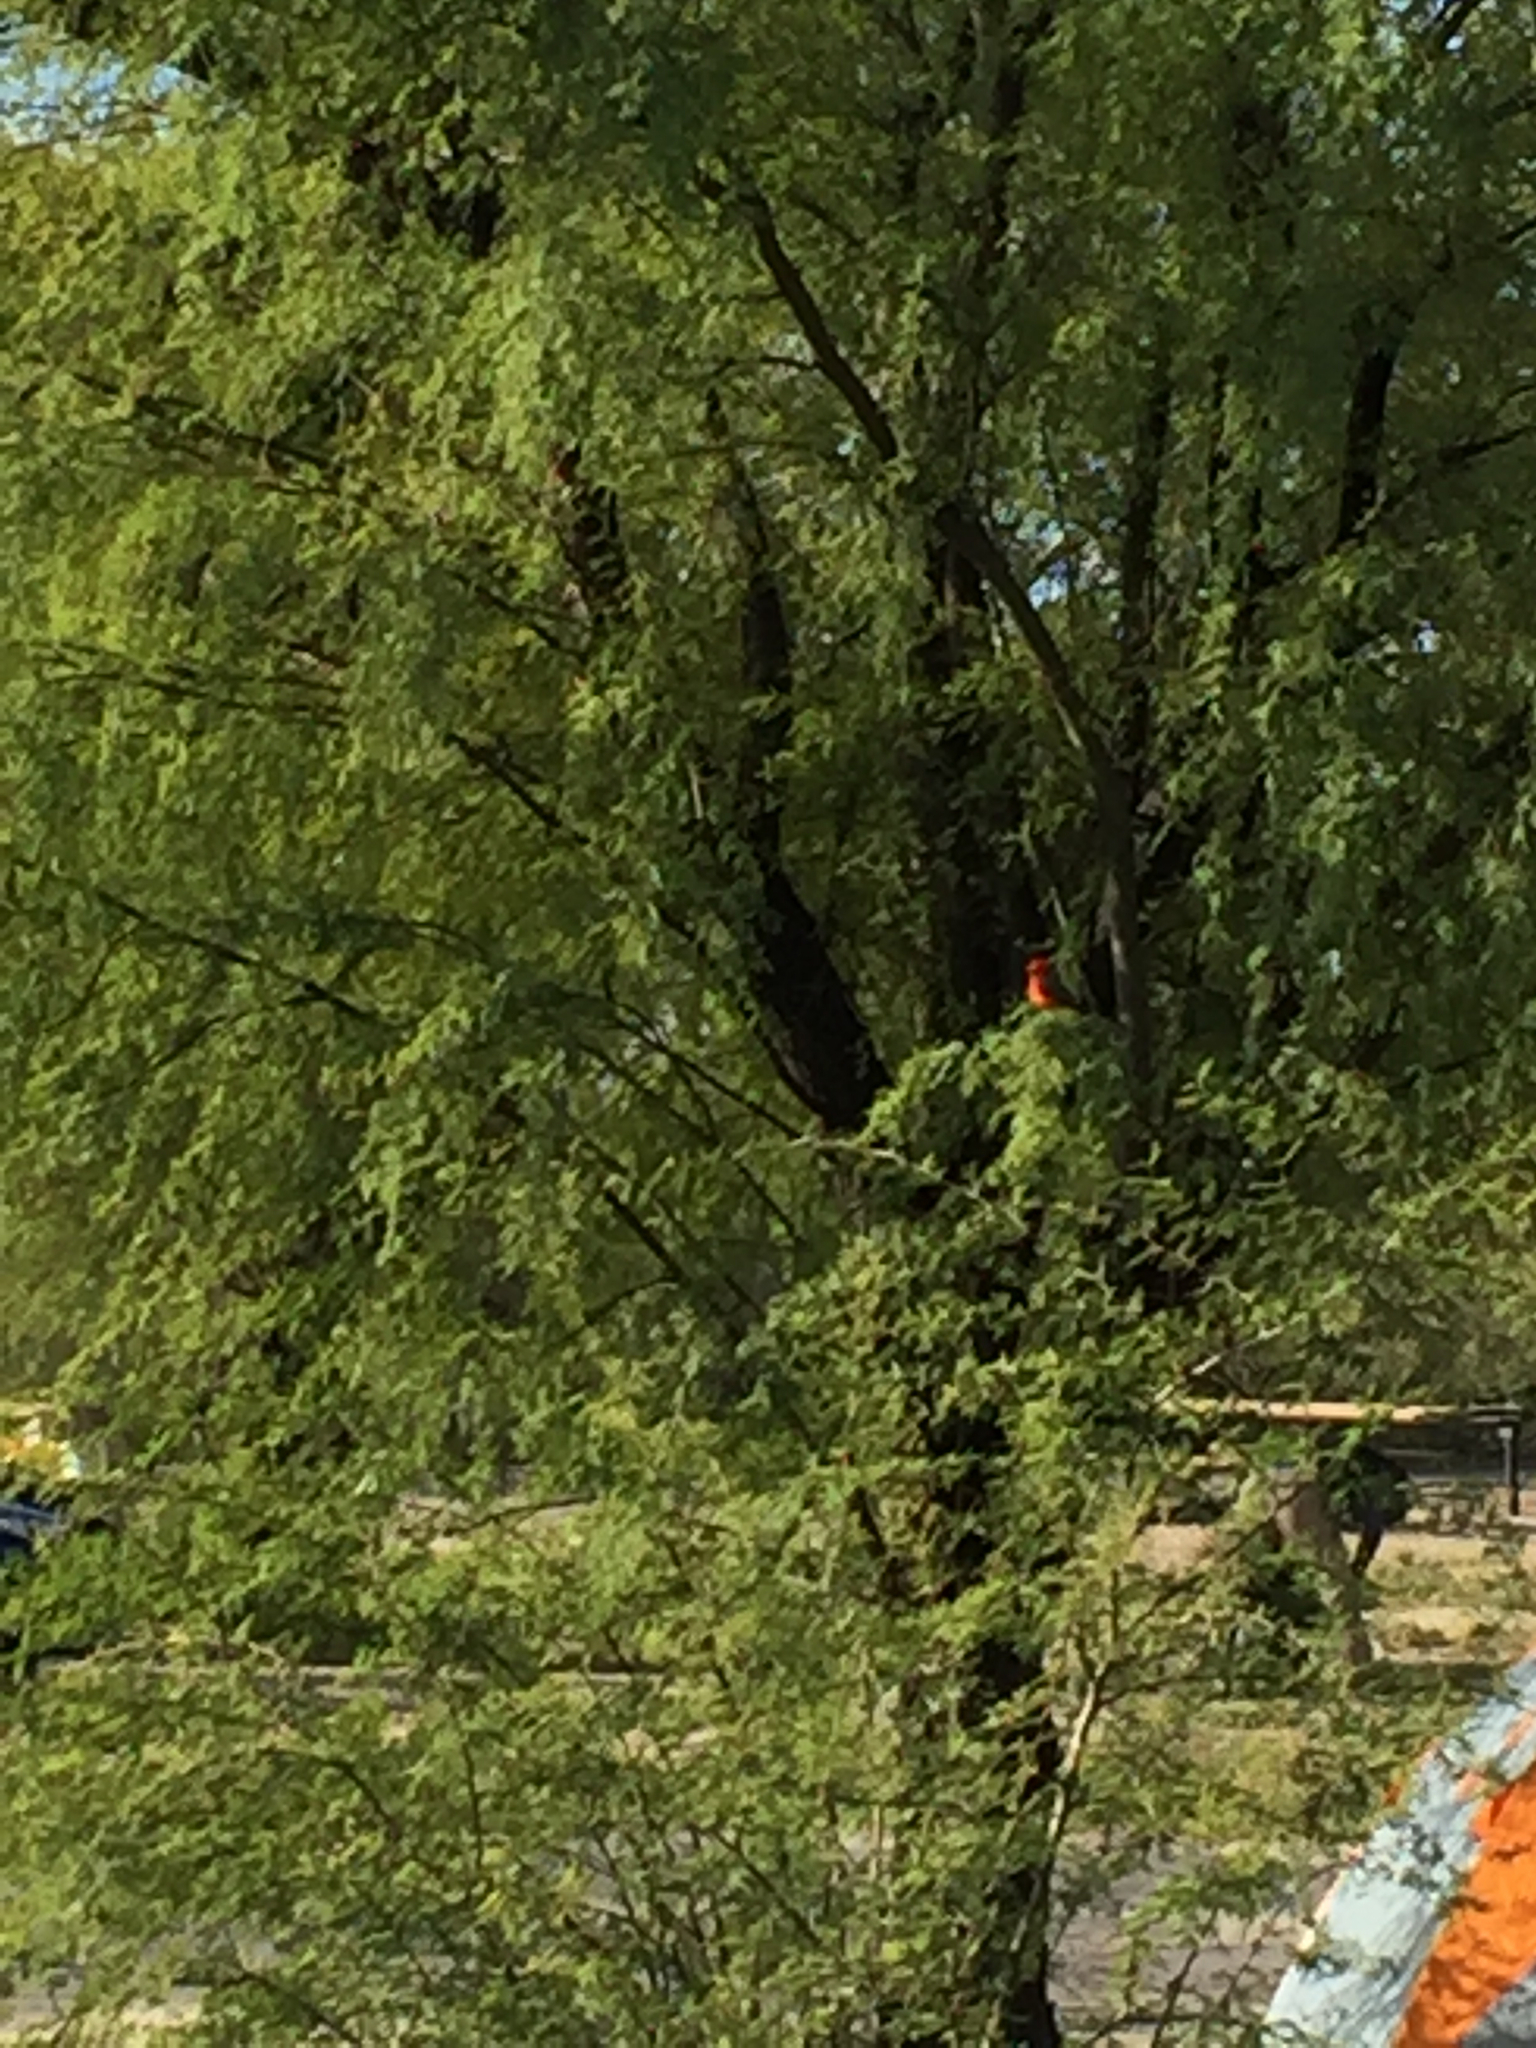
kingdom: Animalia
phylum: Chordata
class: Aves
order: Passeriformes
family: Tyrannidae
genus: Pyrocephalus
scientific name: Pyrocephalus rubinus
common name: Vermilion flycatcher
